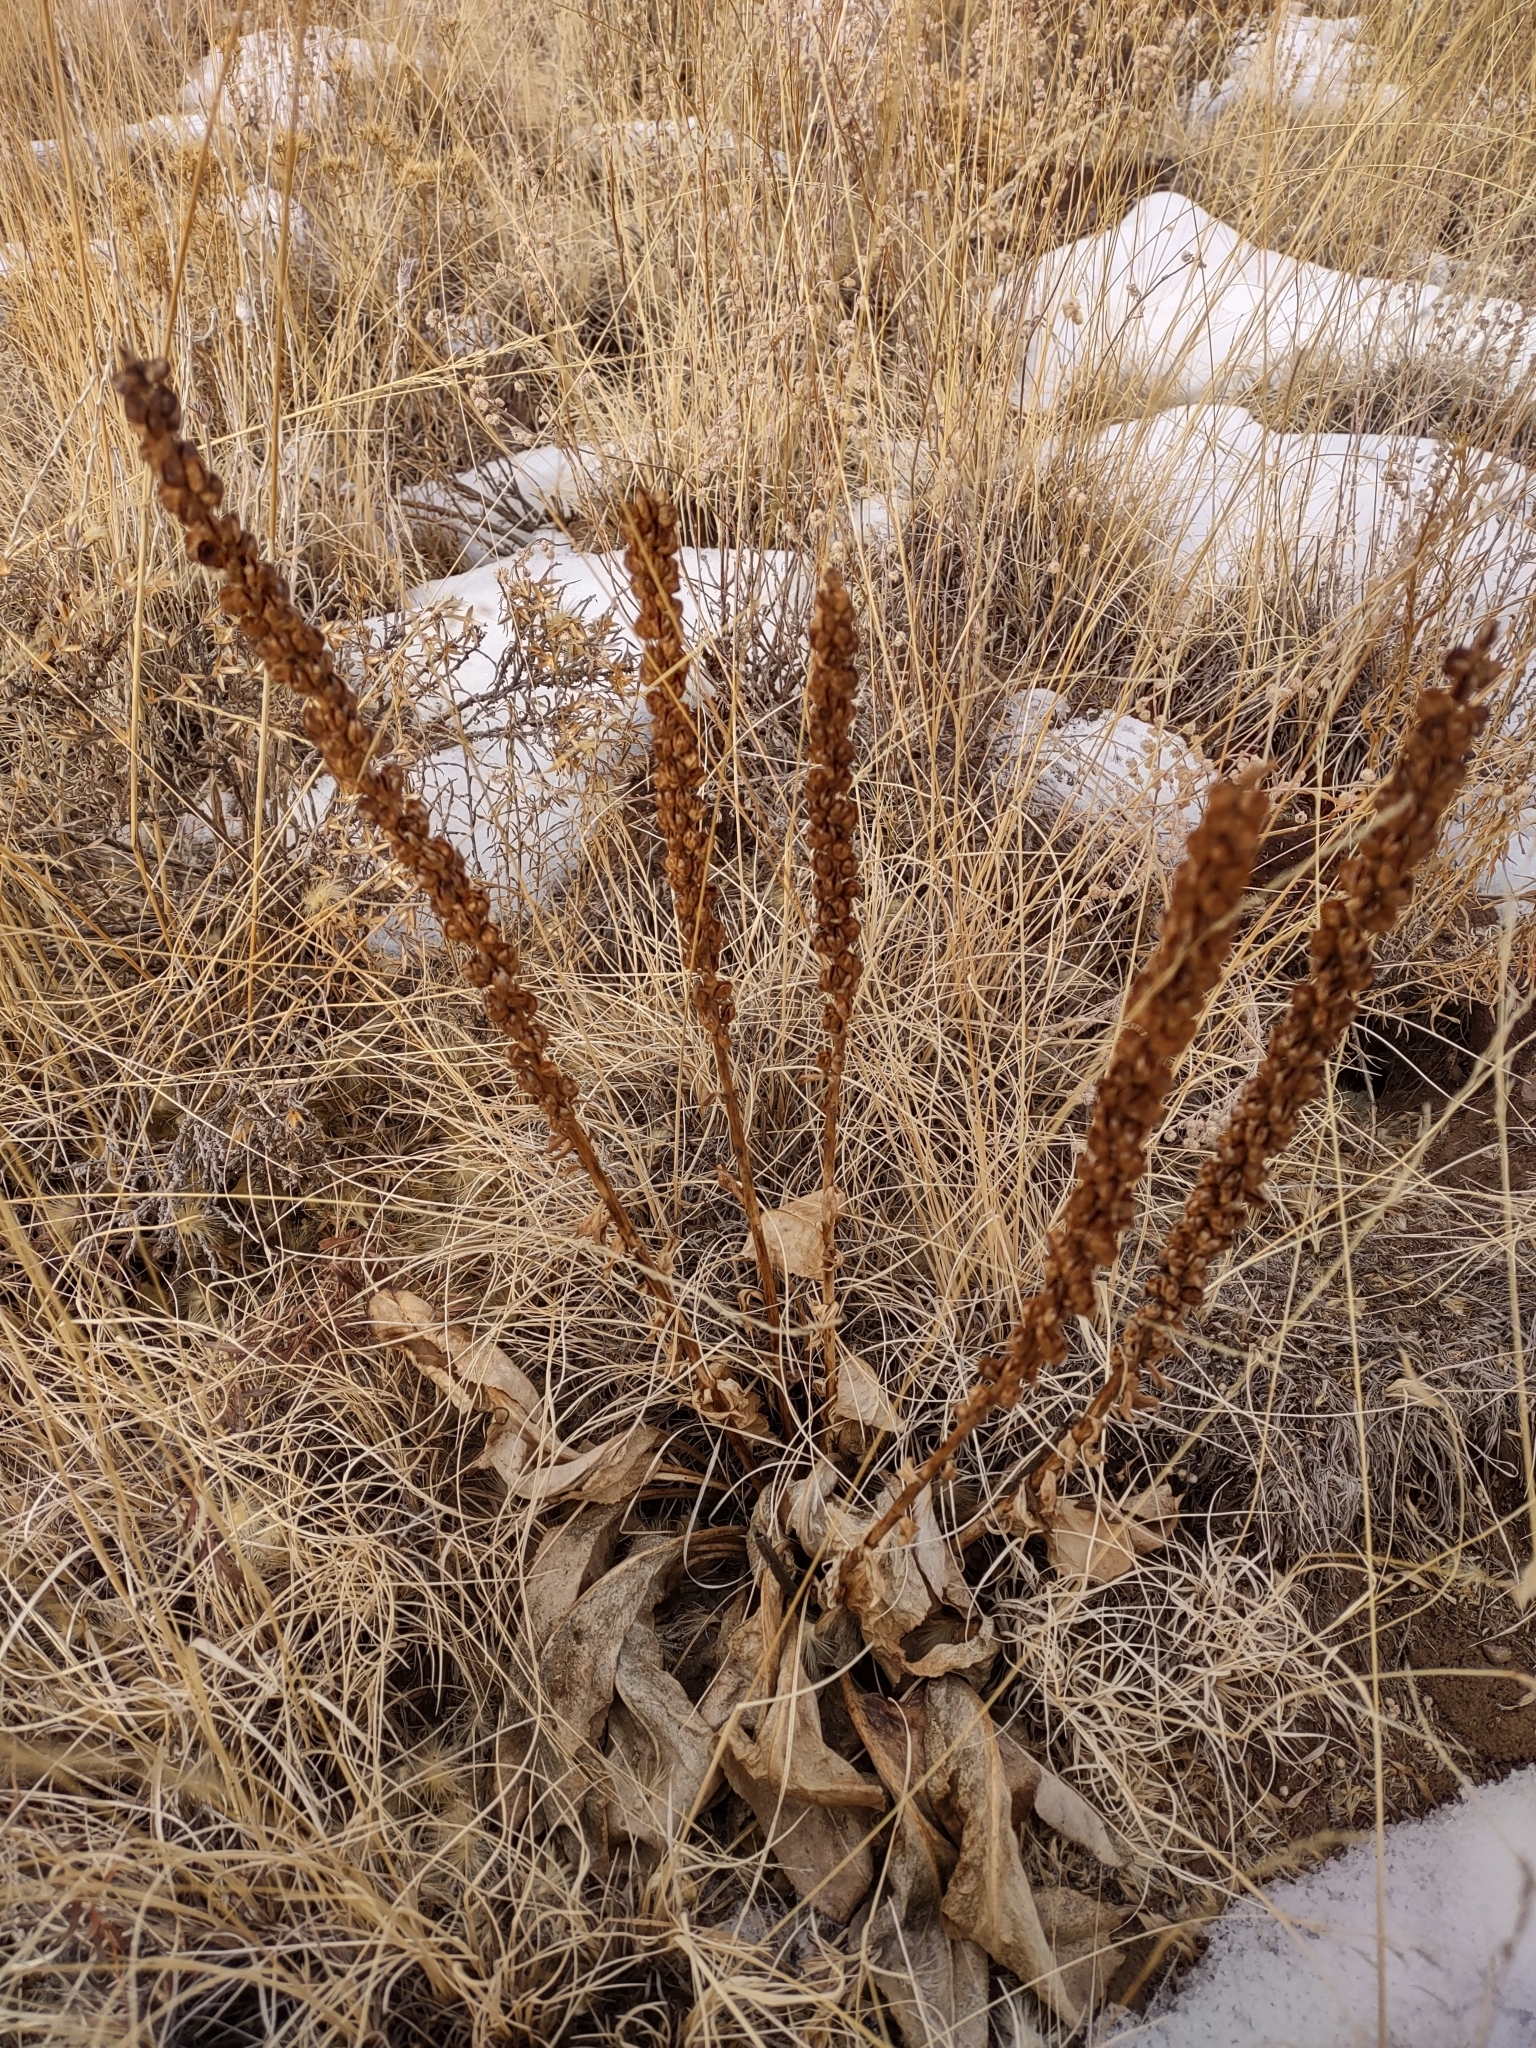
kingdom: Plantae
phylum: Tracheophyta
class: Magnoliopsida
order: Lamiales
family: Scrophulariaceae
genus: Verbascum
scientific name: Verbascum thapsus
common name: Common mullein
